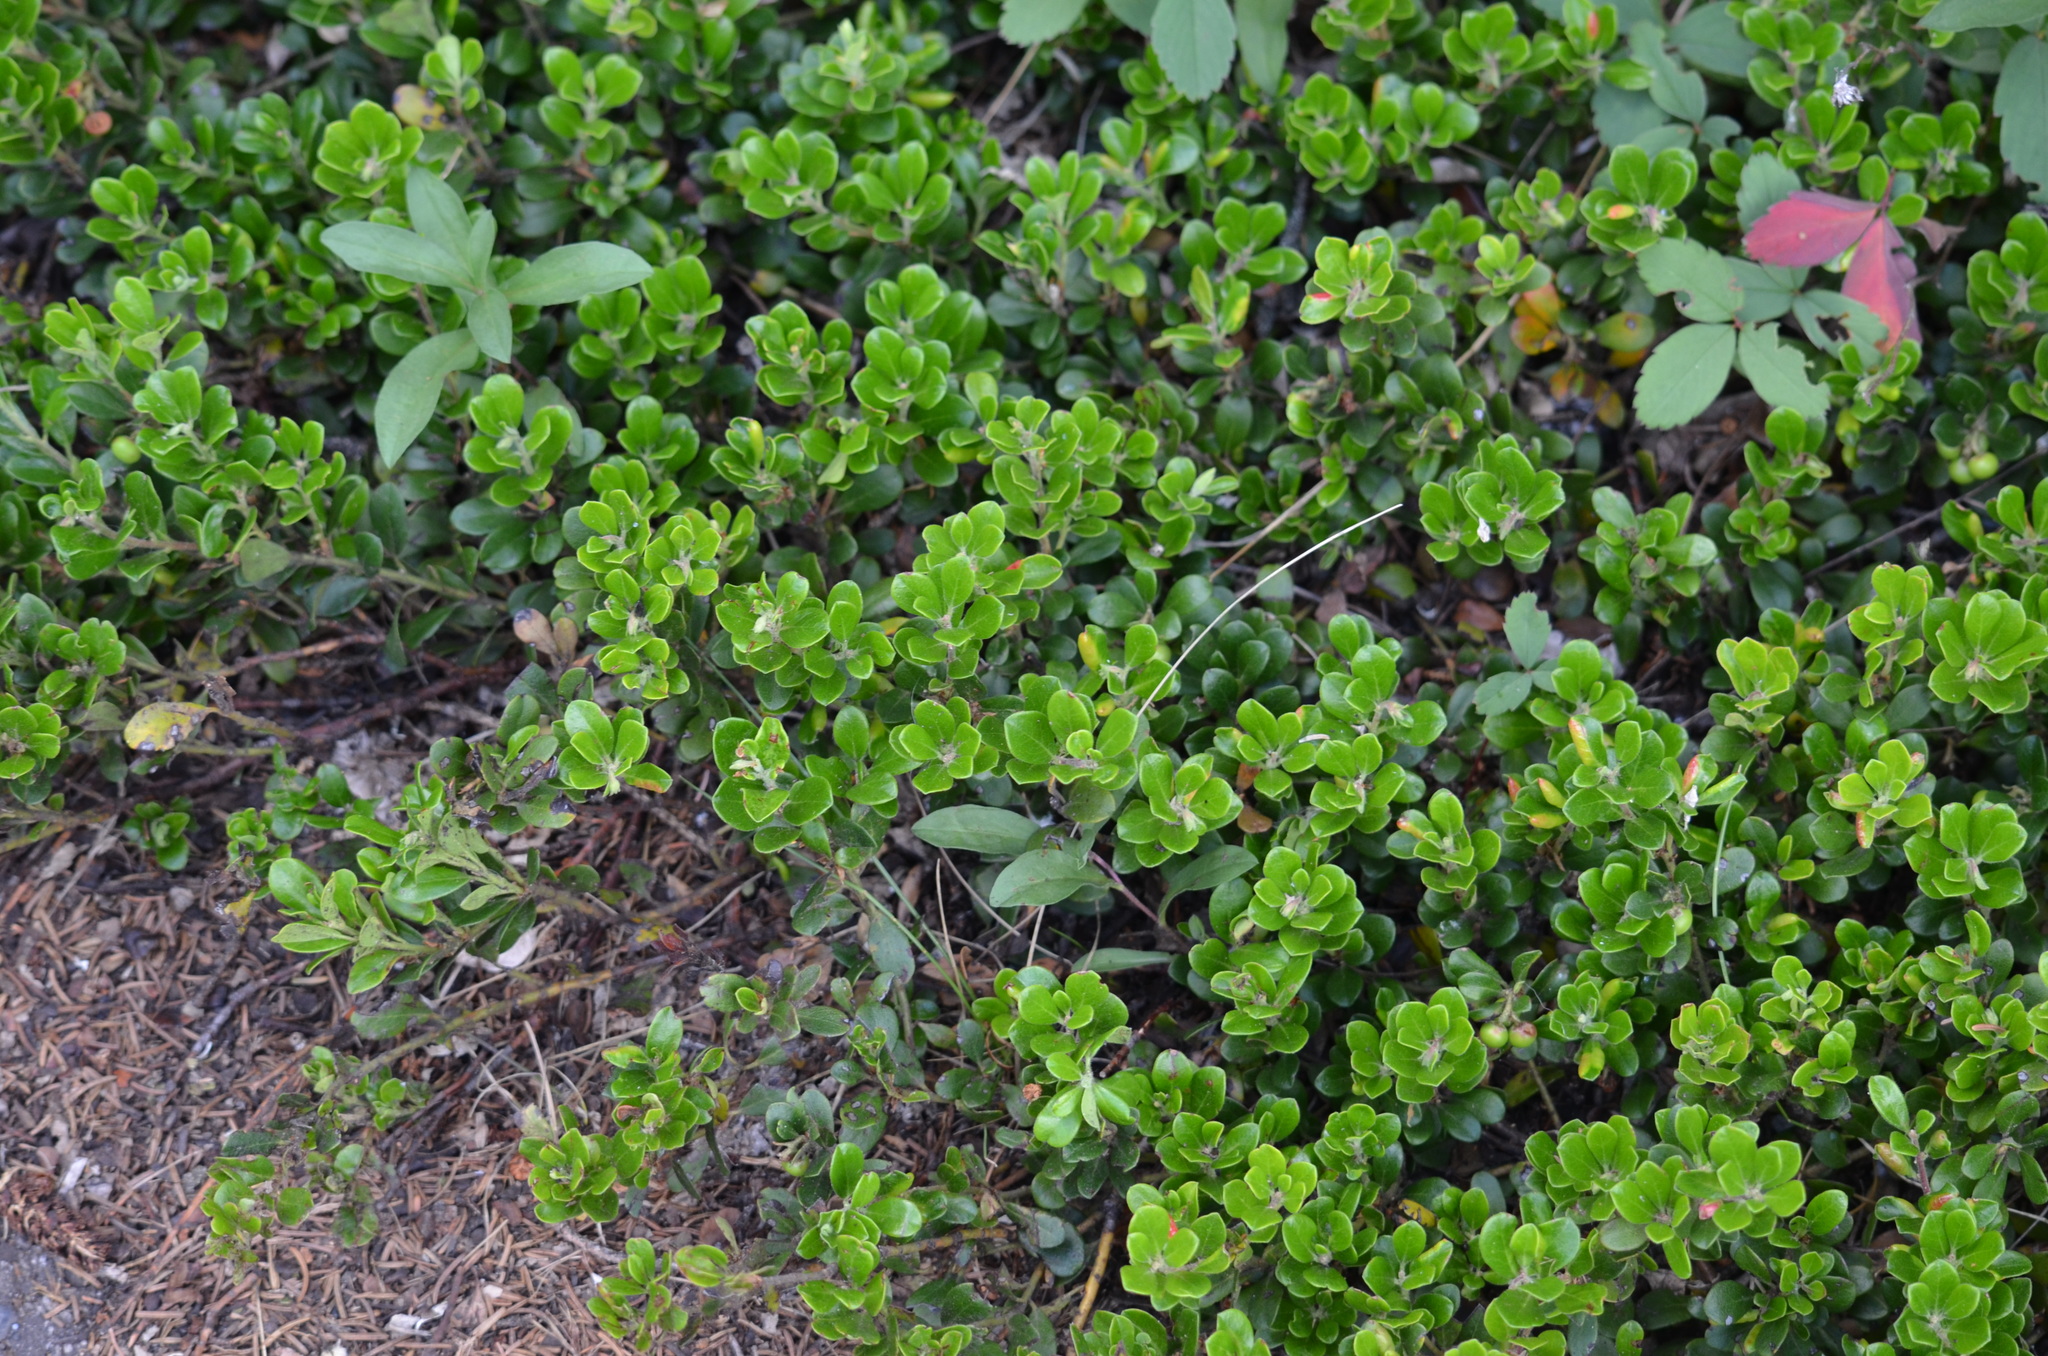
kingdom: Plantae
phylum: Tracheophyta
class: Magnoliopsida
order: Ericales
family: Ericaceae
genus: Arctostaphylos
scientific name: Arctostaphylos uva-ursi
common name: Bearberry
